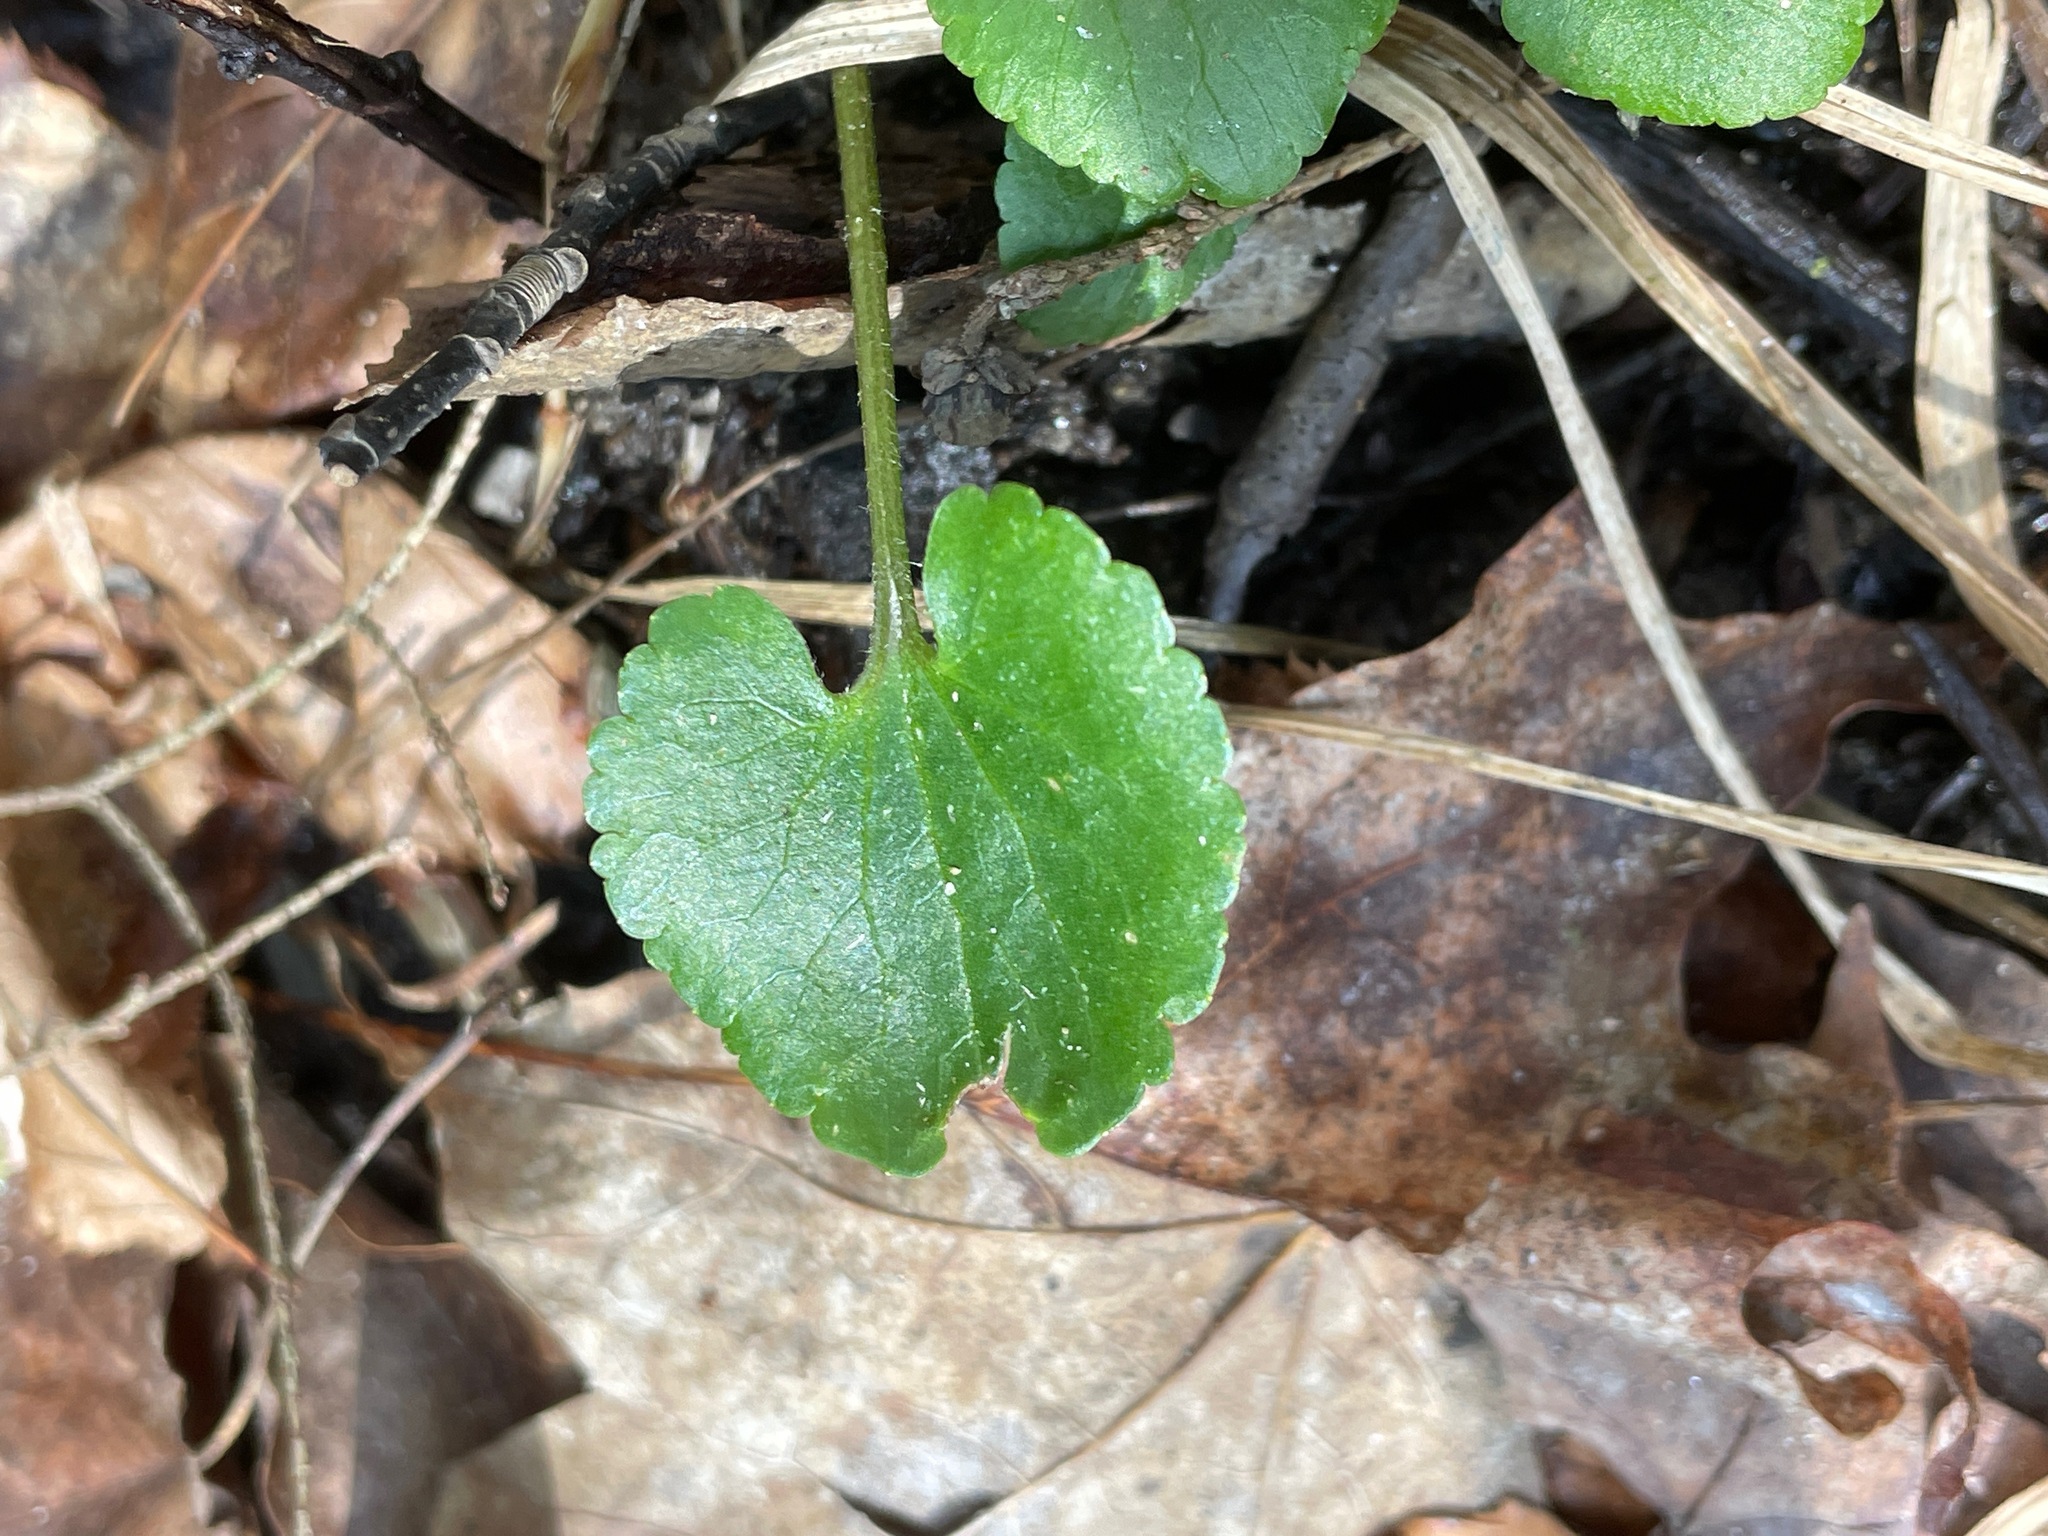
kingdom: Plantae
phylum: Tracheophyta
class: Magnoliopsida
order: Ranunculales
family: Ranunculaceae
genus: Ranunculus
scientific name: Ranunculus abortivus
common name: Early wood buttercup
